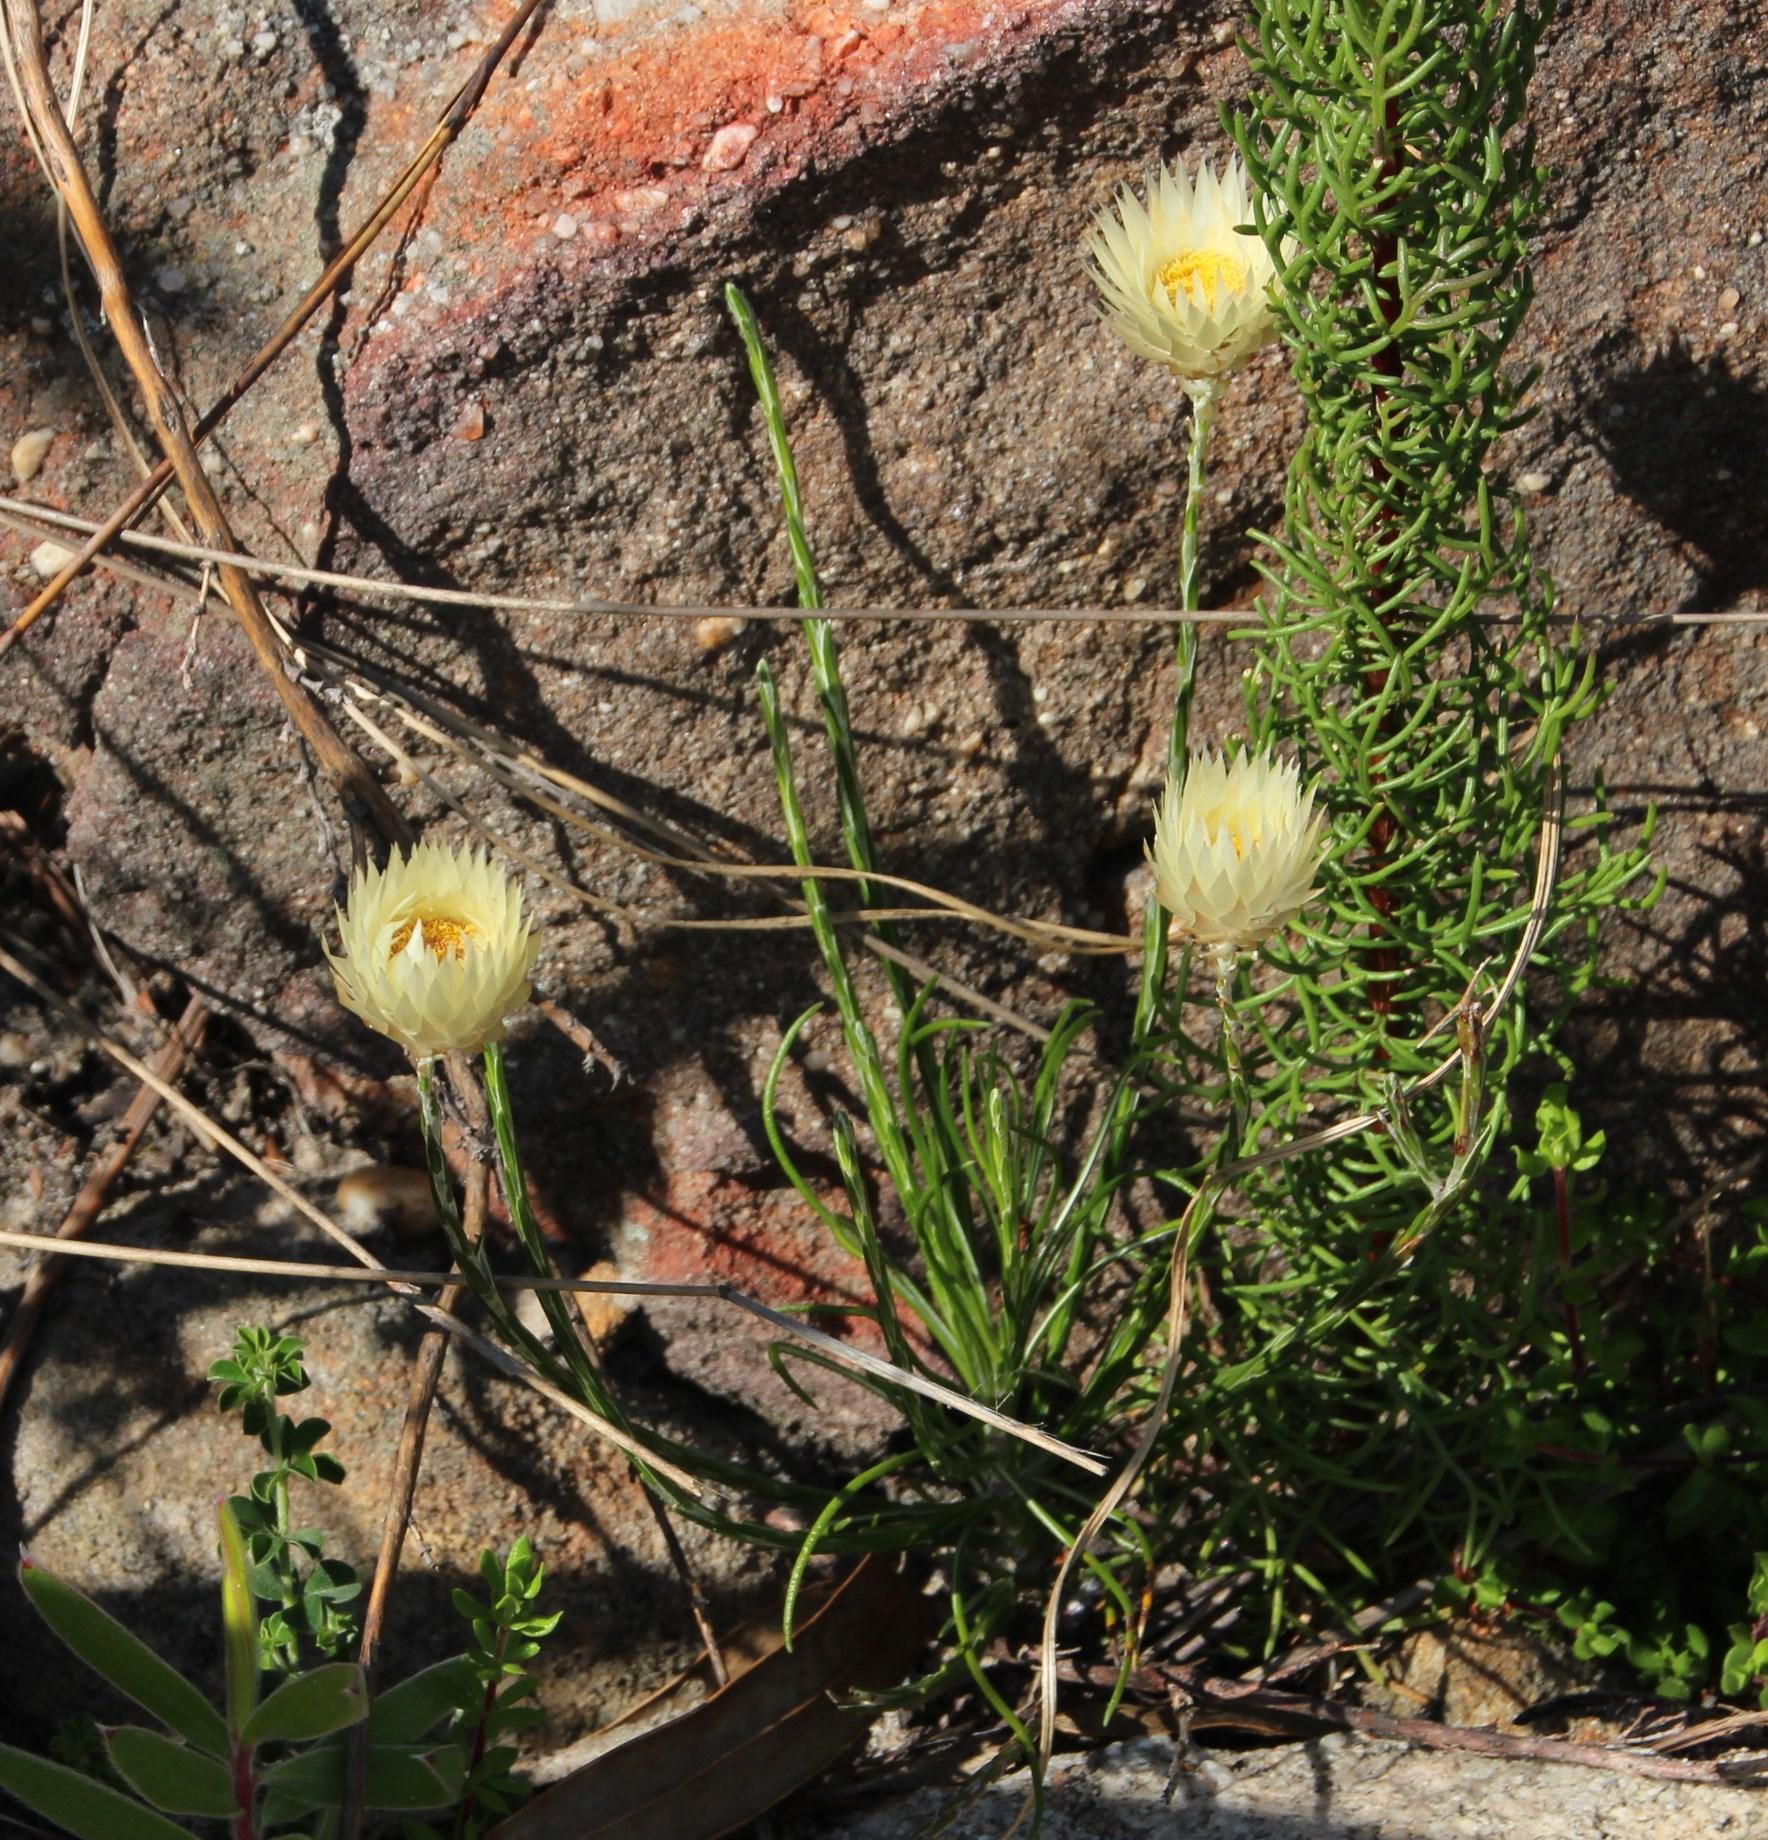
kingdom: Plantae
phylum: Tracheophyta
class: Magnoliopsida
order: Asterales
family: Asteraceae
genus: Edmondia
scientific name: Edmondia sesamoides
